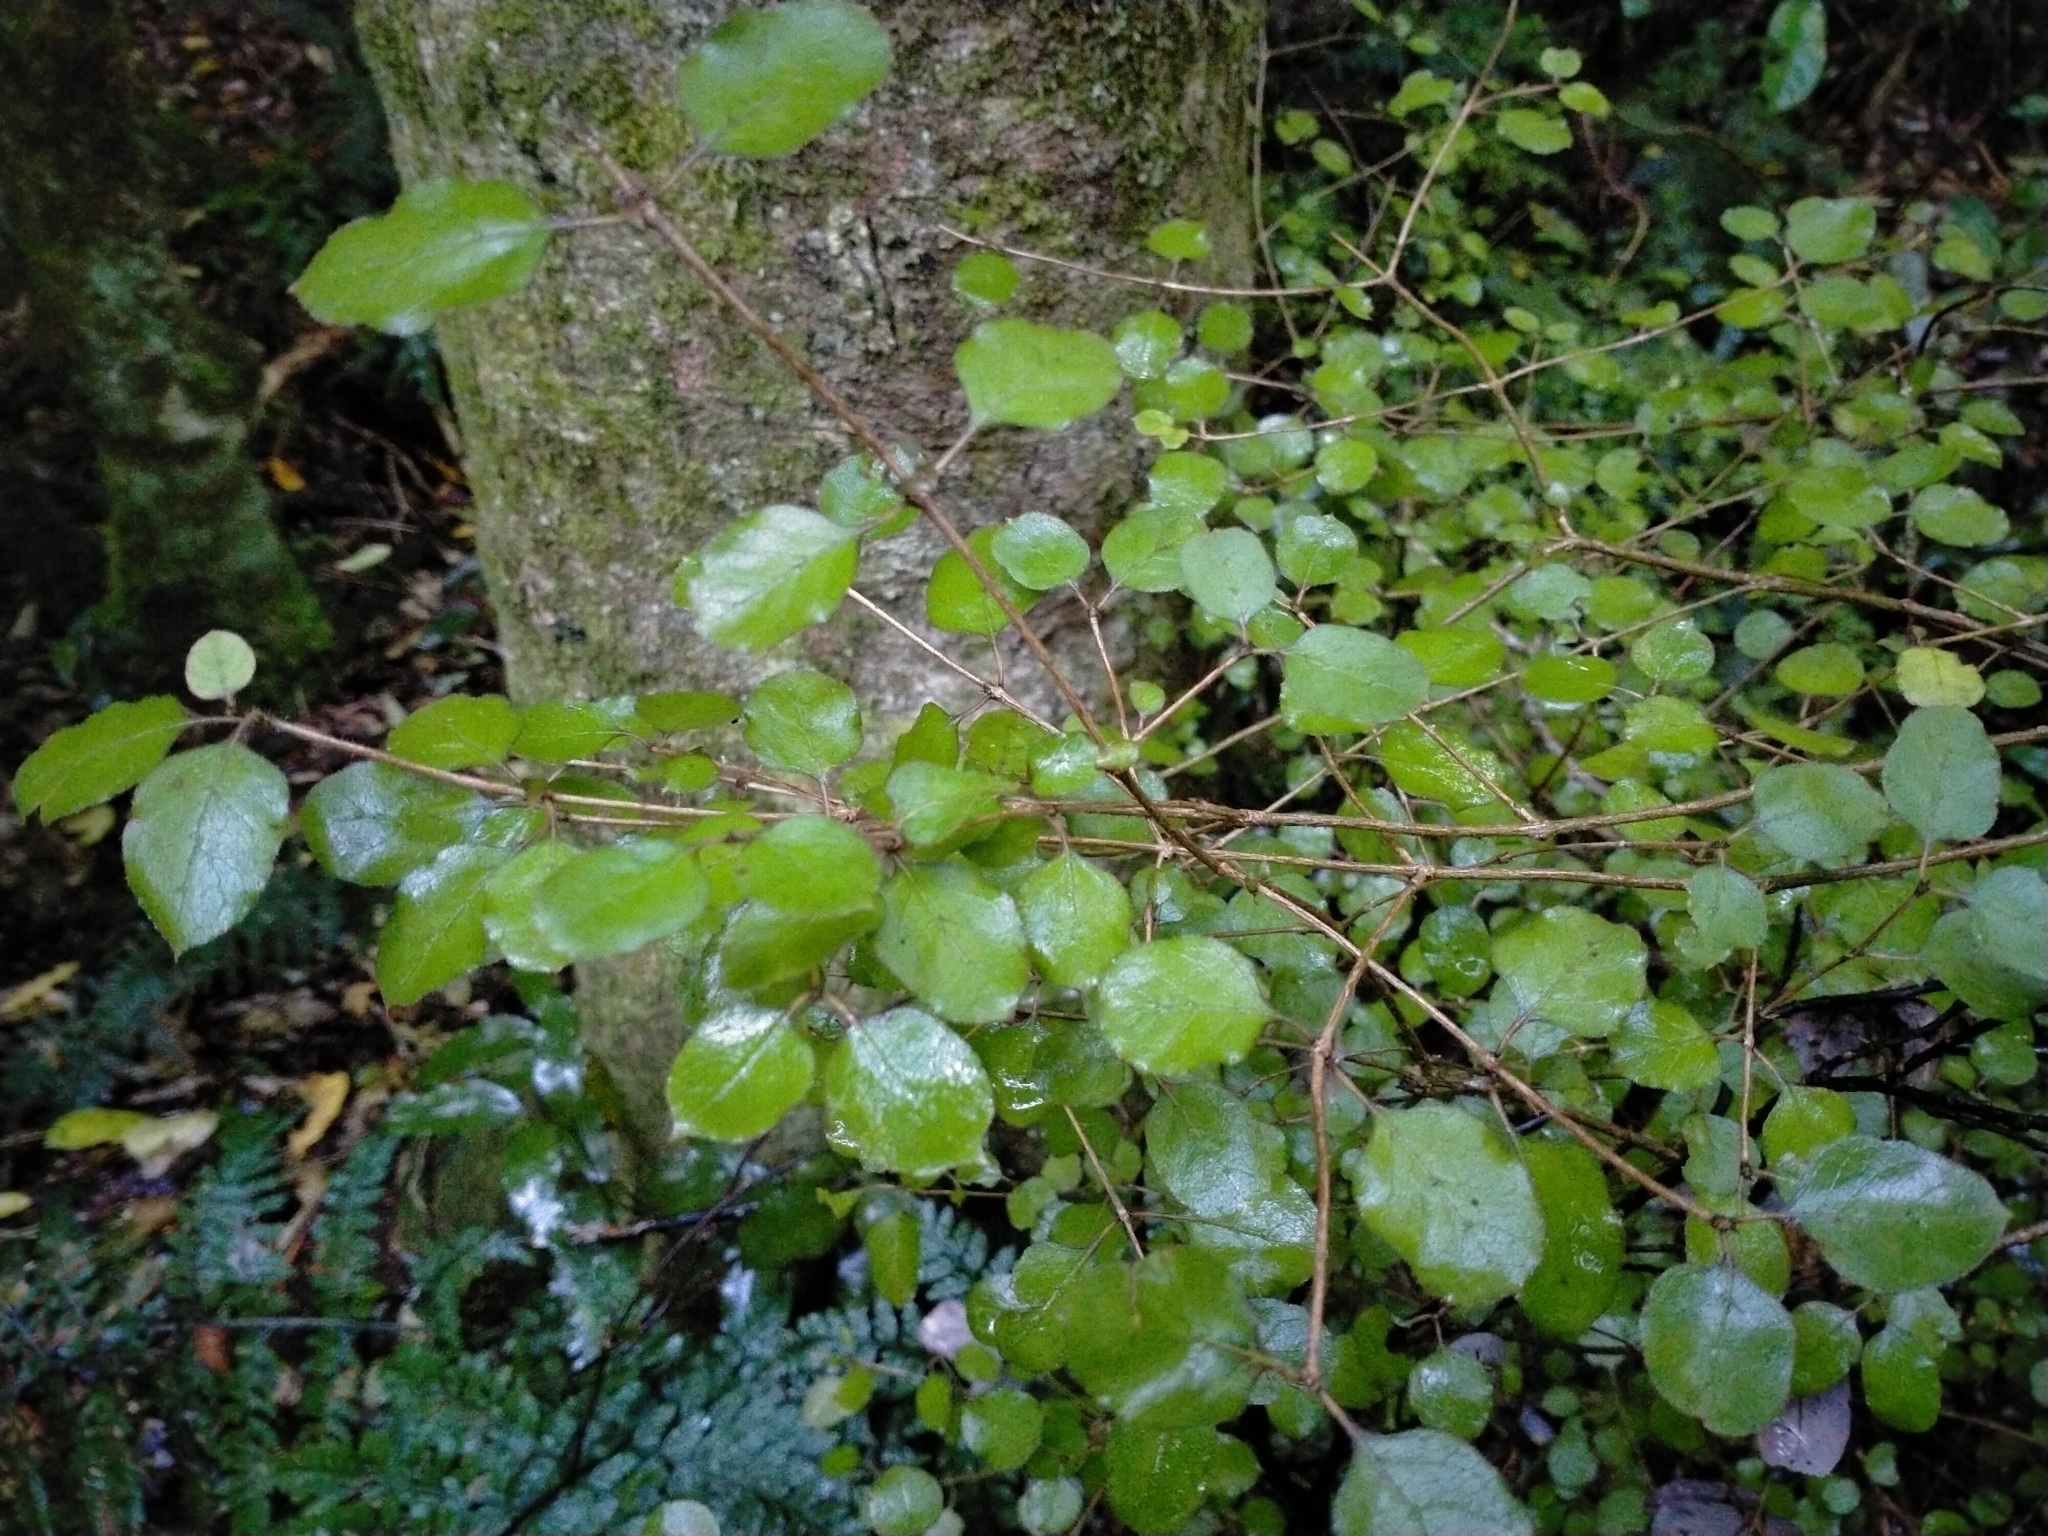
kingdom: Plantae
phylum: Tracheophyta
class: Magnoliopsida
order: Gentianales
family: Rubiaceae
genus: Coprosma
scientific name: Coprosma rotundifolia
